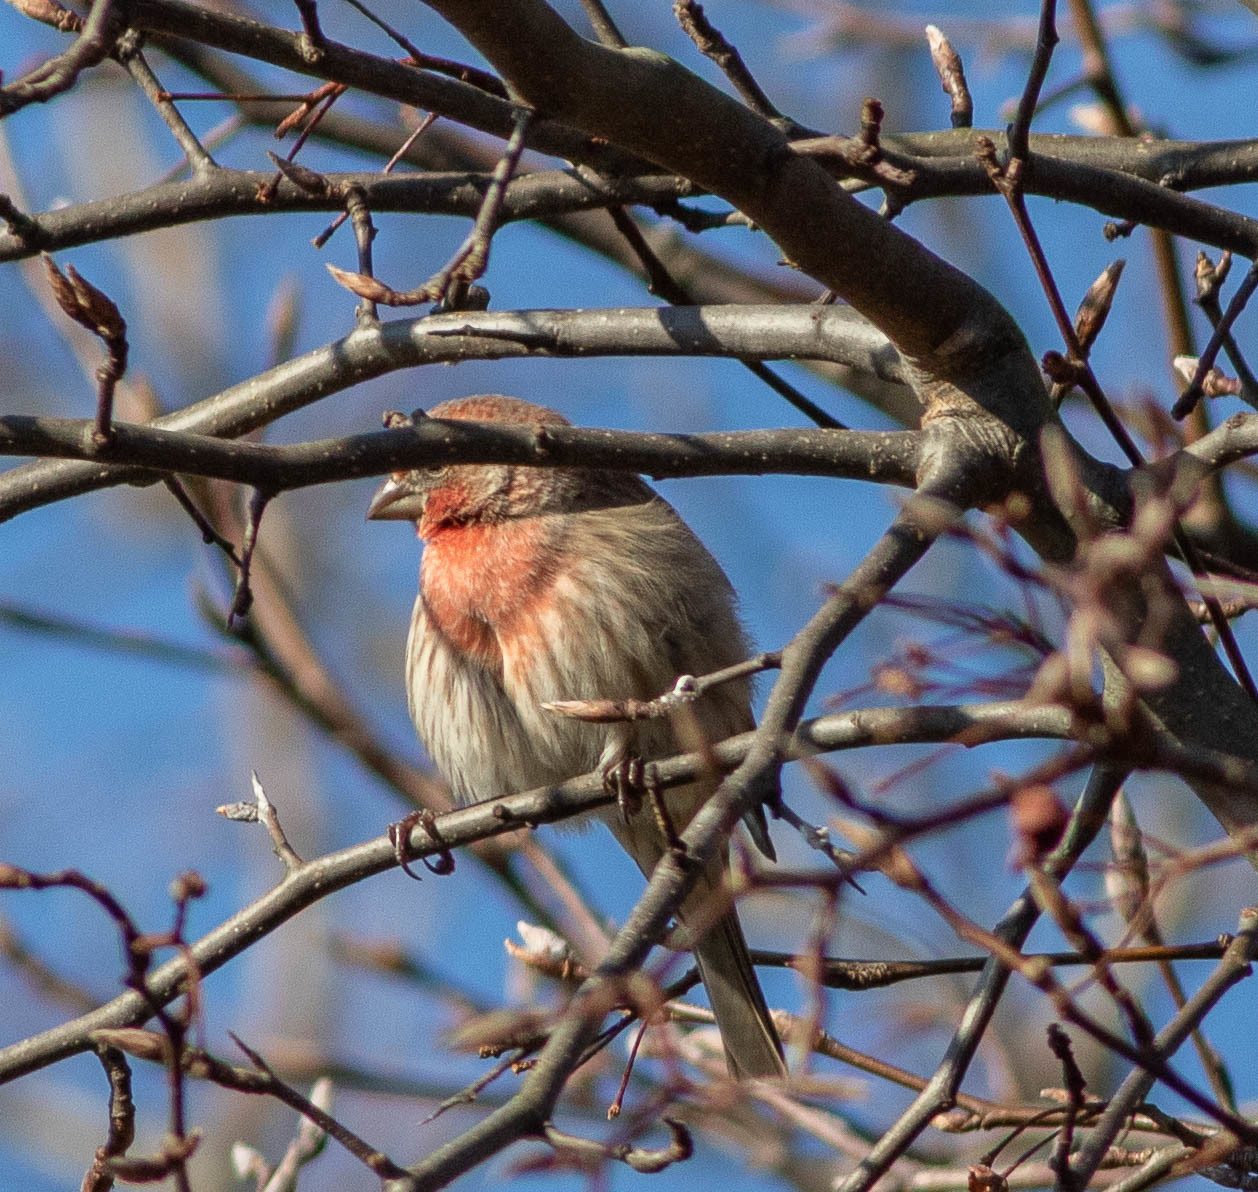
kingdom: Animalia
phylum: Chordata
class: Aves
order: Passeriformes
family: Fringillidae
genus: Haemorhous
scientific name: Haemorhous mexicanus
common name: House finch
